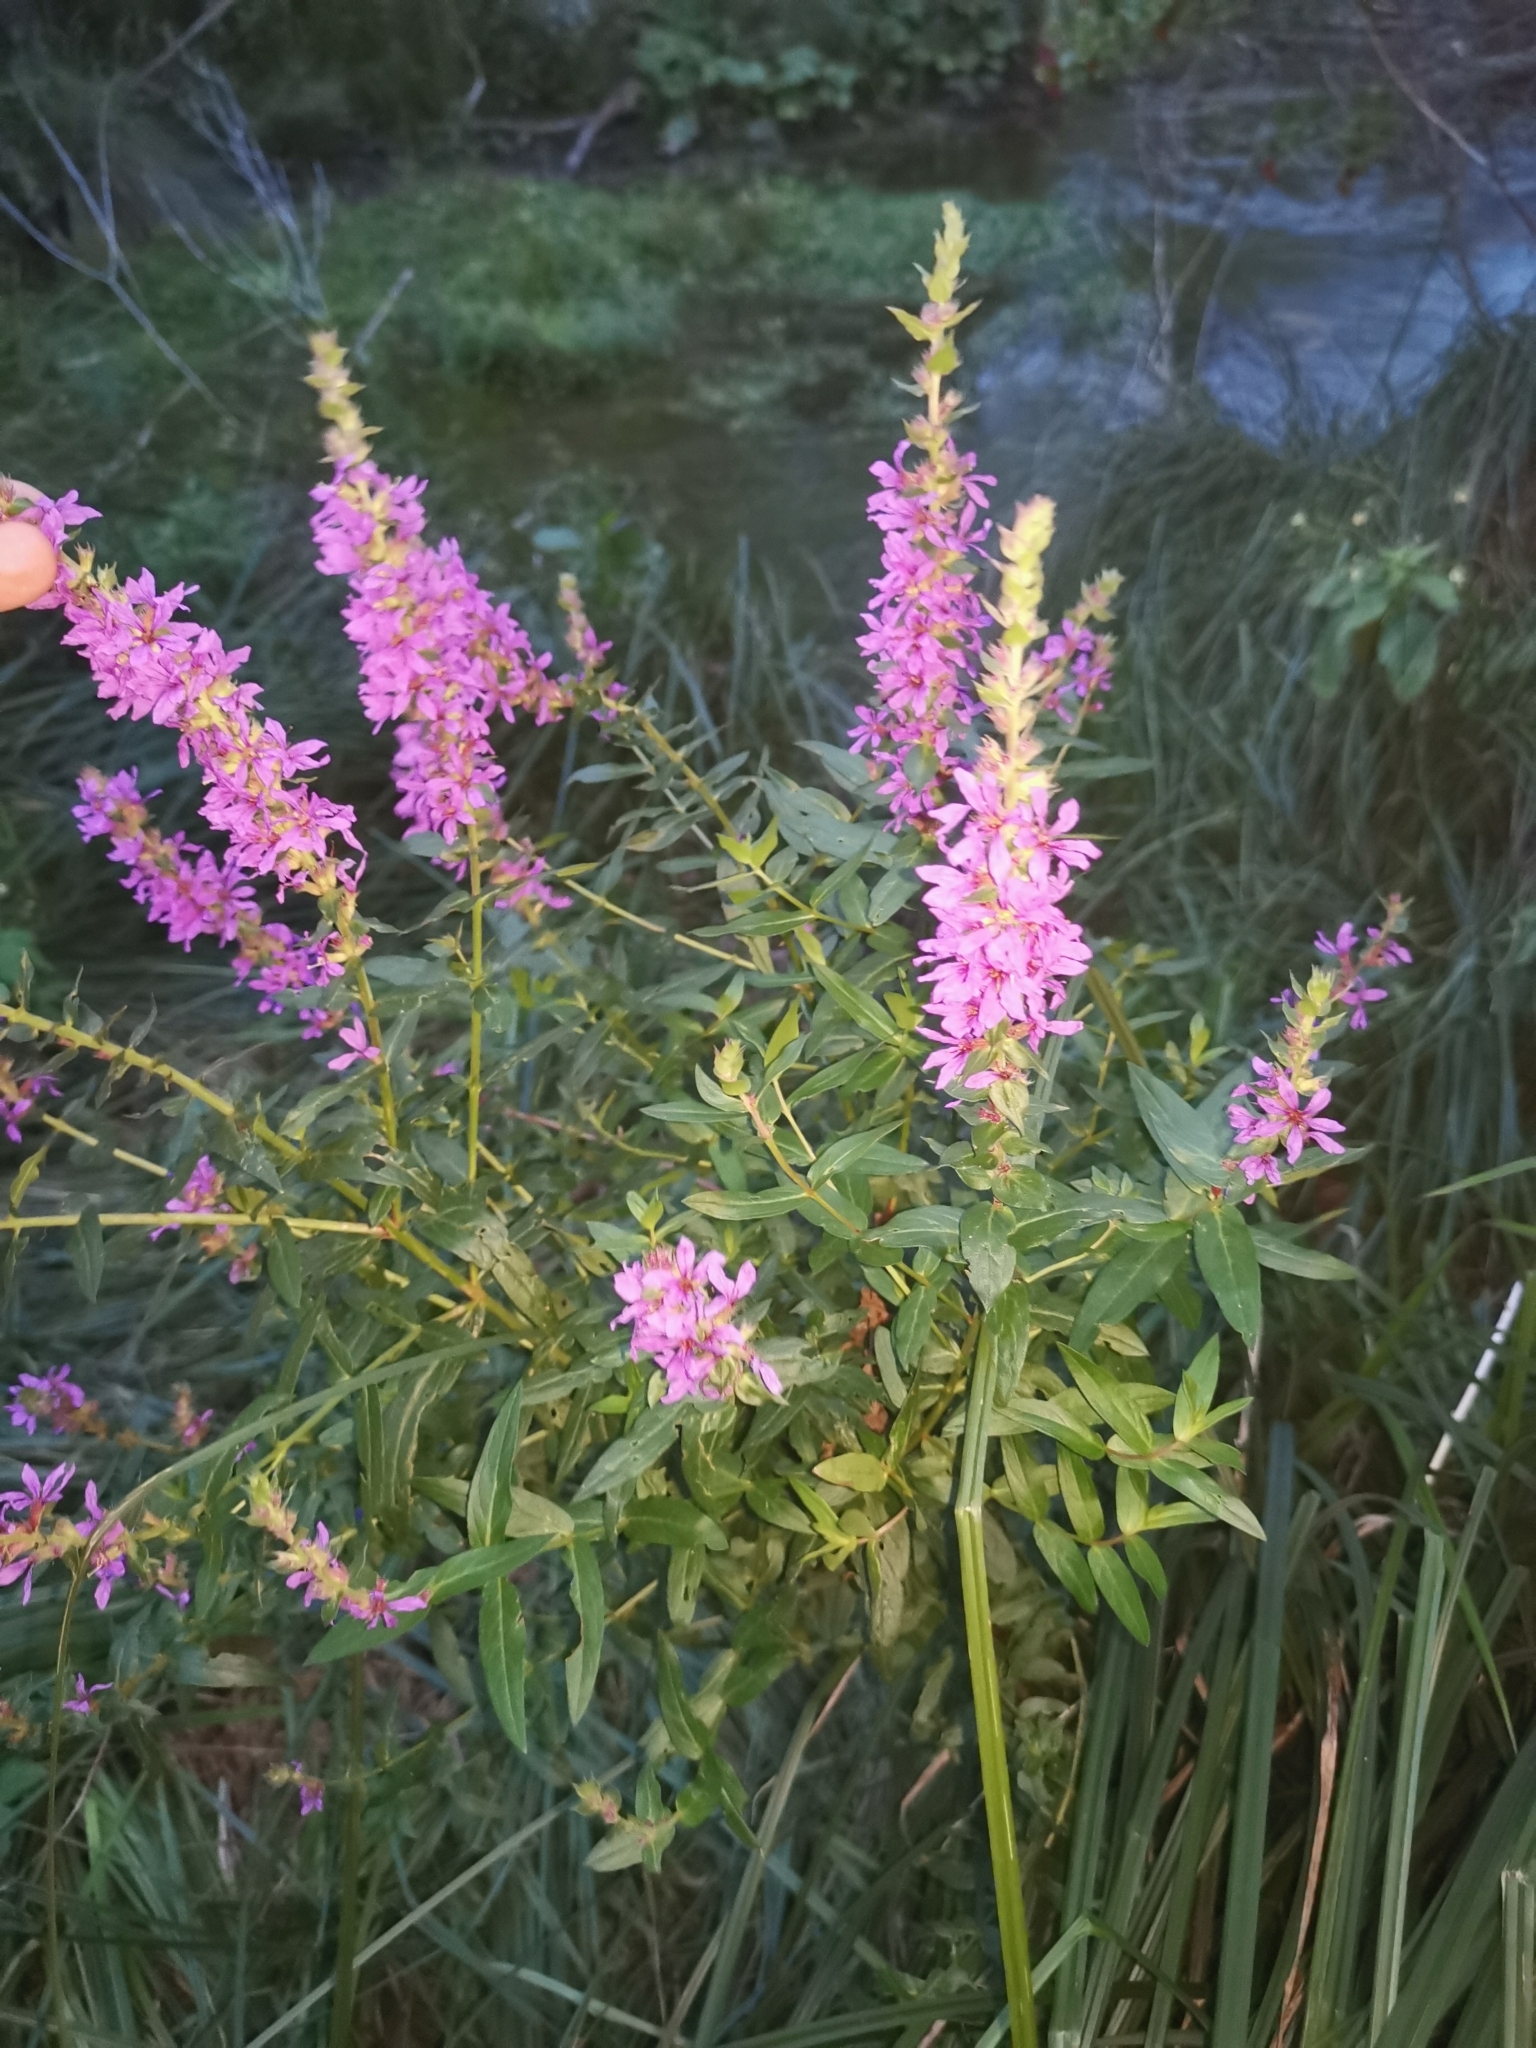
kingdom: Plantae
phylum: Tracheophyta
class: Magnoliopsida
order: Myrtales
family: Lythraceae
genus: Lythrum
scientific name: Lythrum salicaria
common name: Purple loosestrife
